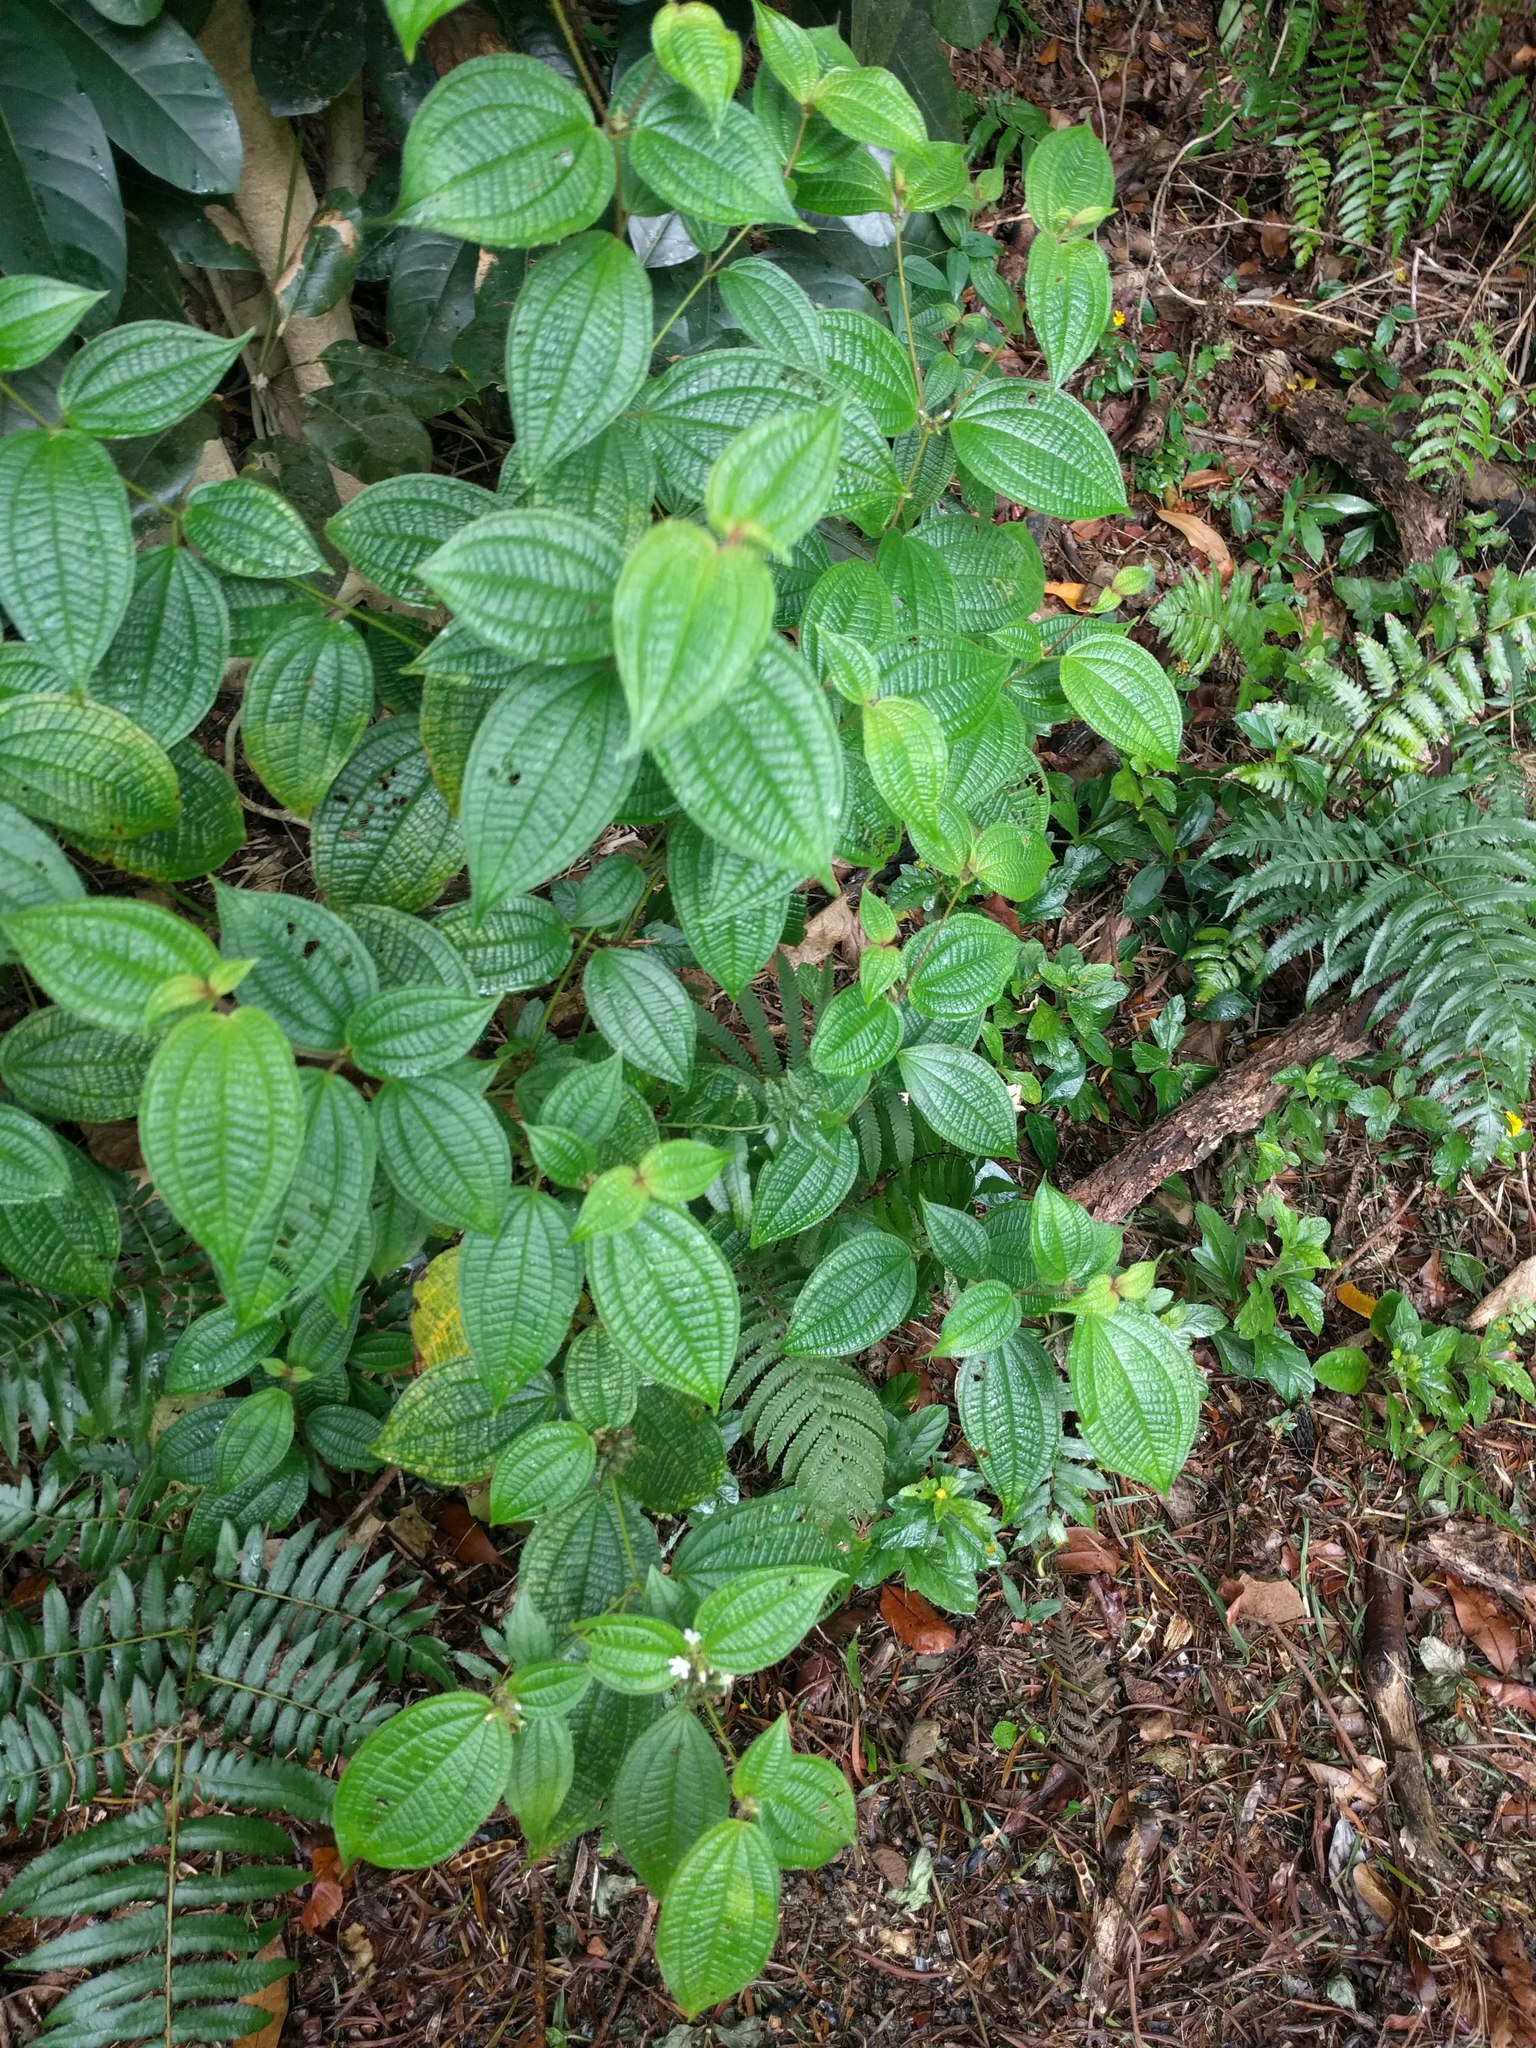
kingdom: Plantae
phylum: Tracheophyta
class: Magnoliopsida
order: Myrtales
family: Melastomataceae
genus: Miconia
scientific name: Miconia crenata
